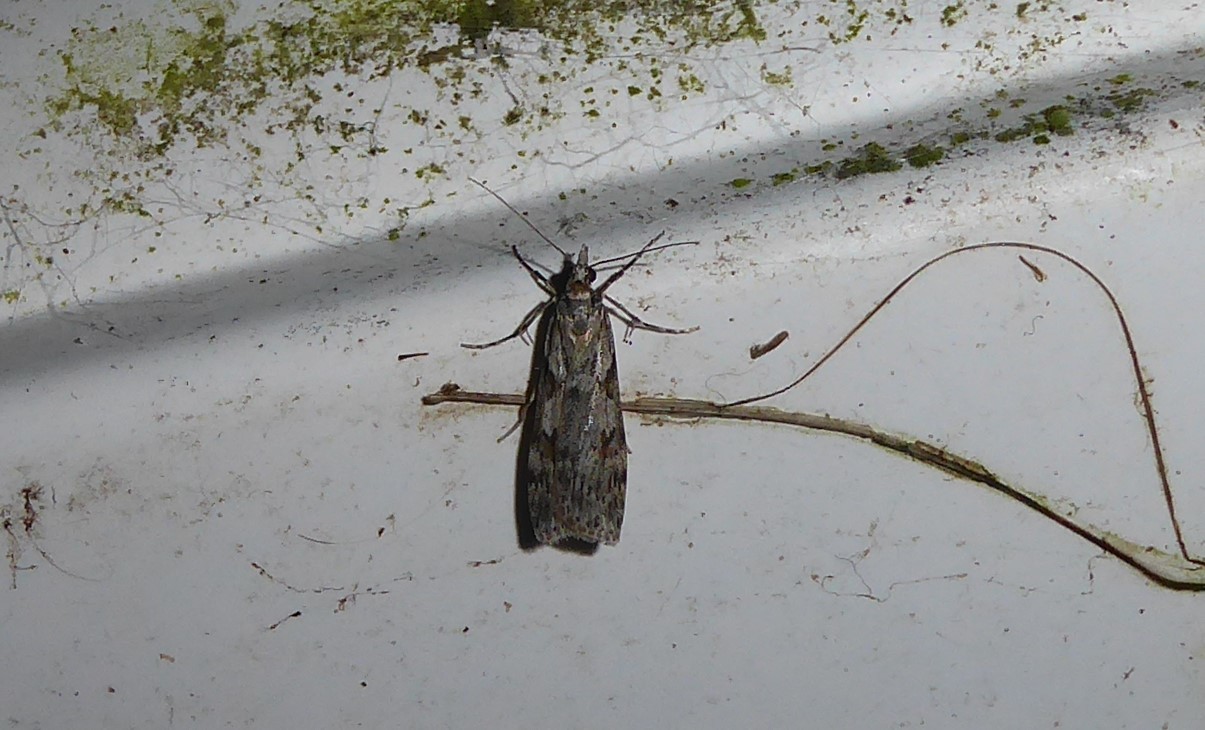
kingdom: Animalia
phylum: Arthropoda
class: Insecta
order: Lepidoptera
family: Crambidae
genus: Scoparia
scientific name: Scoparia halopis
